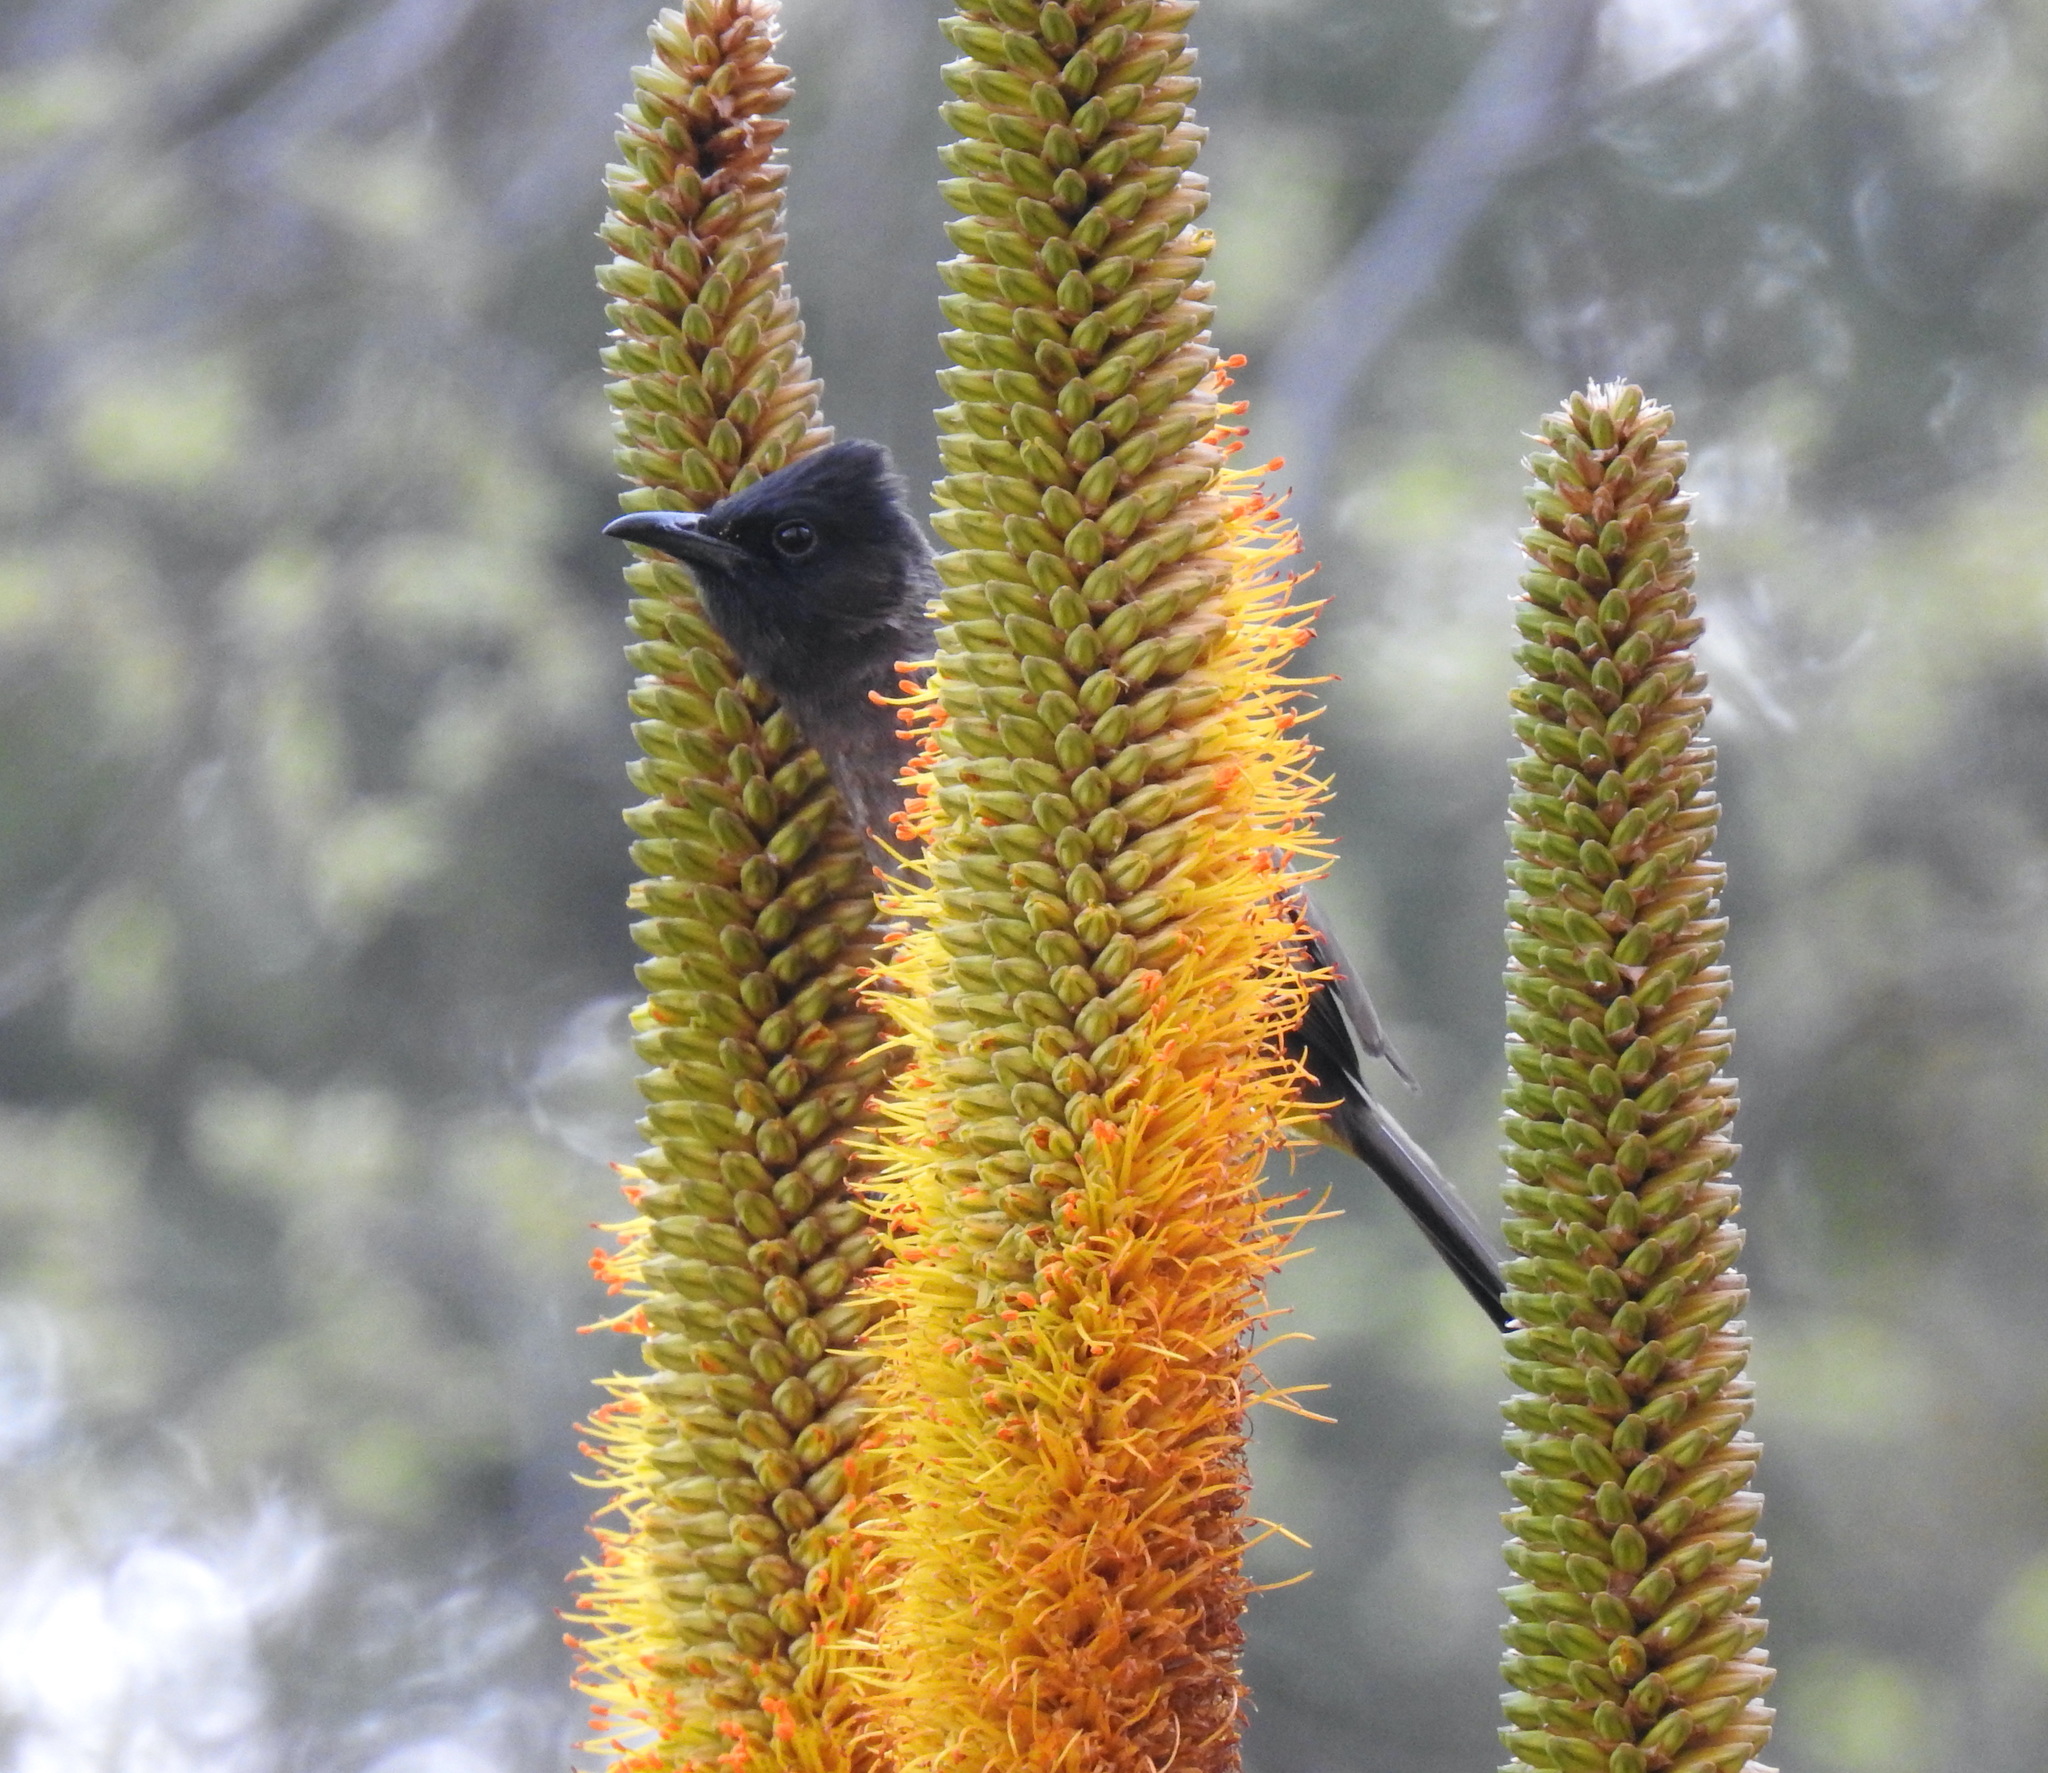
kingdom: Animalia
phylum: Chordata
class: Aves
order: Passeriformes
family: Pycnonotidae
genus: Pycnonotus
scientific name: Pycnonotus barbatus
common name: Common bulbul
